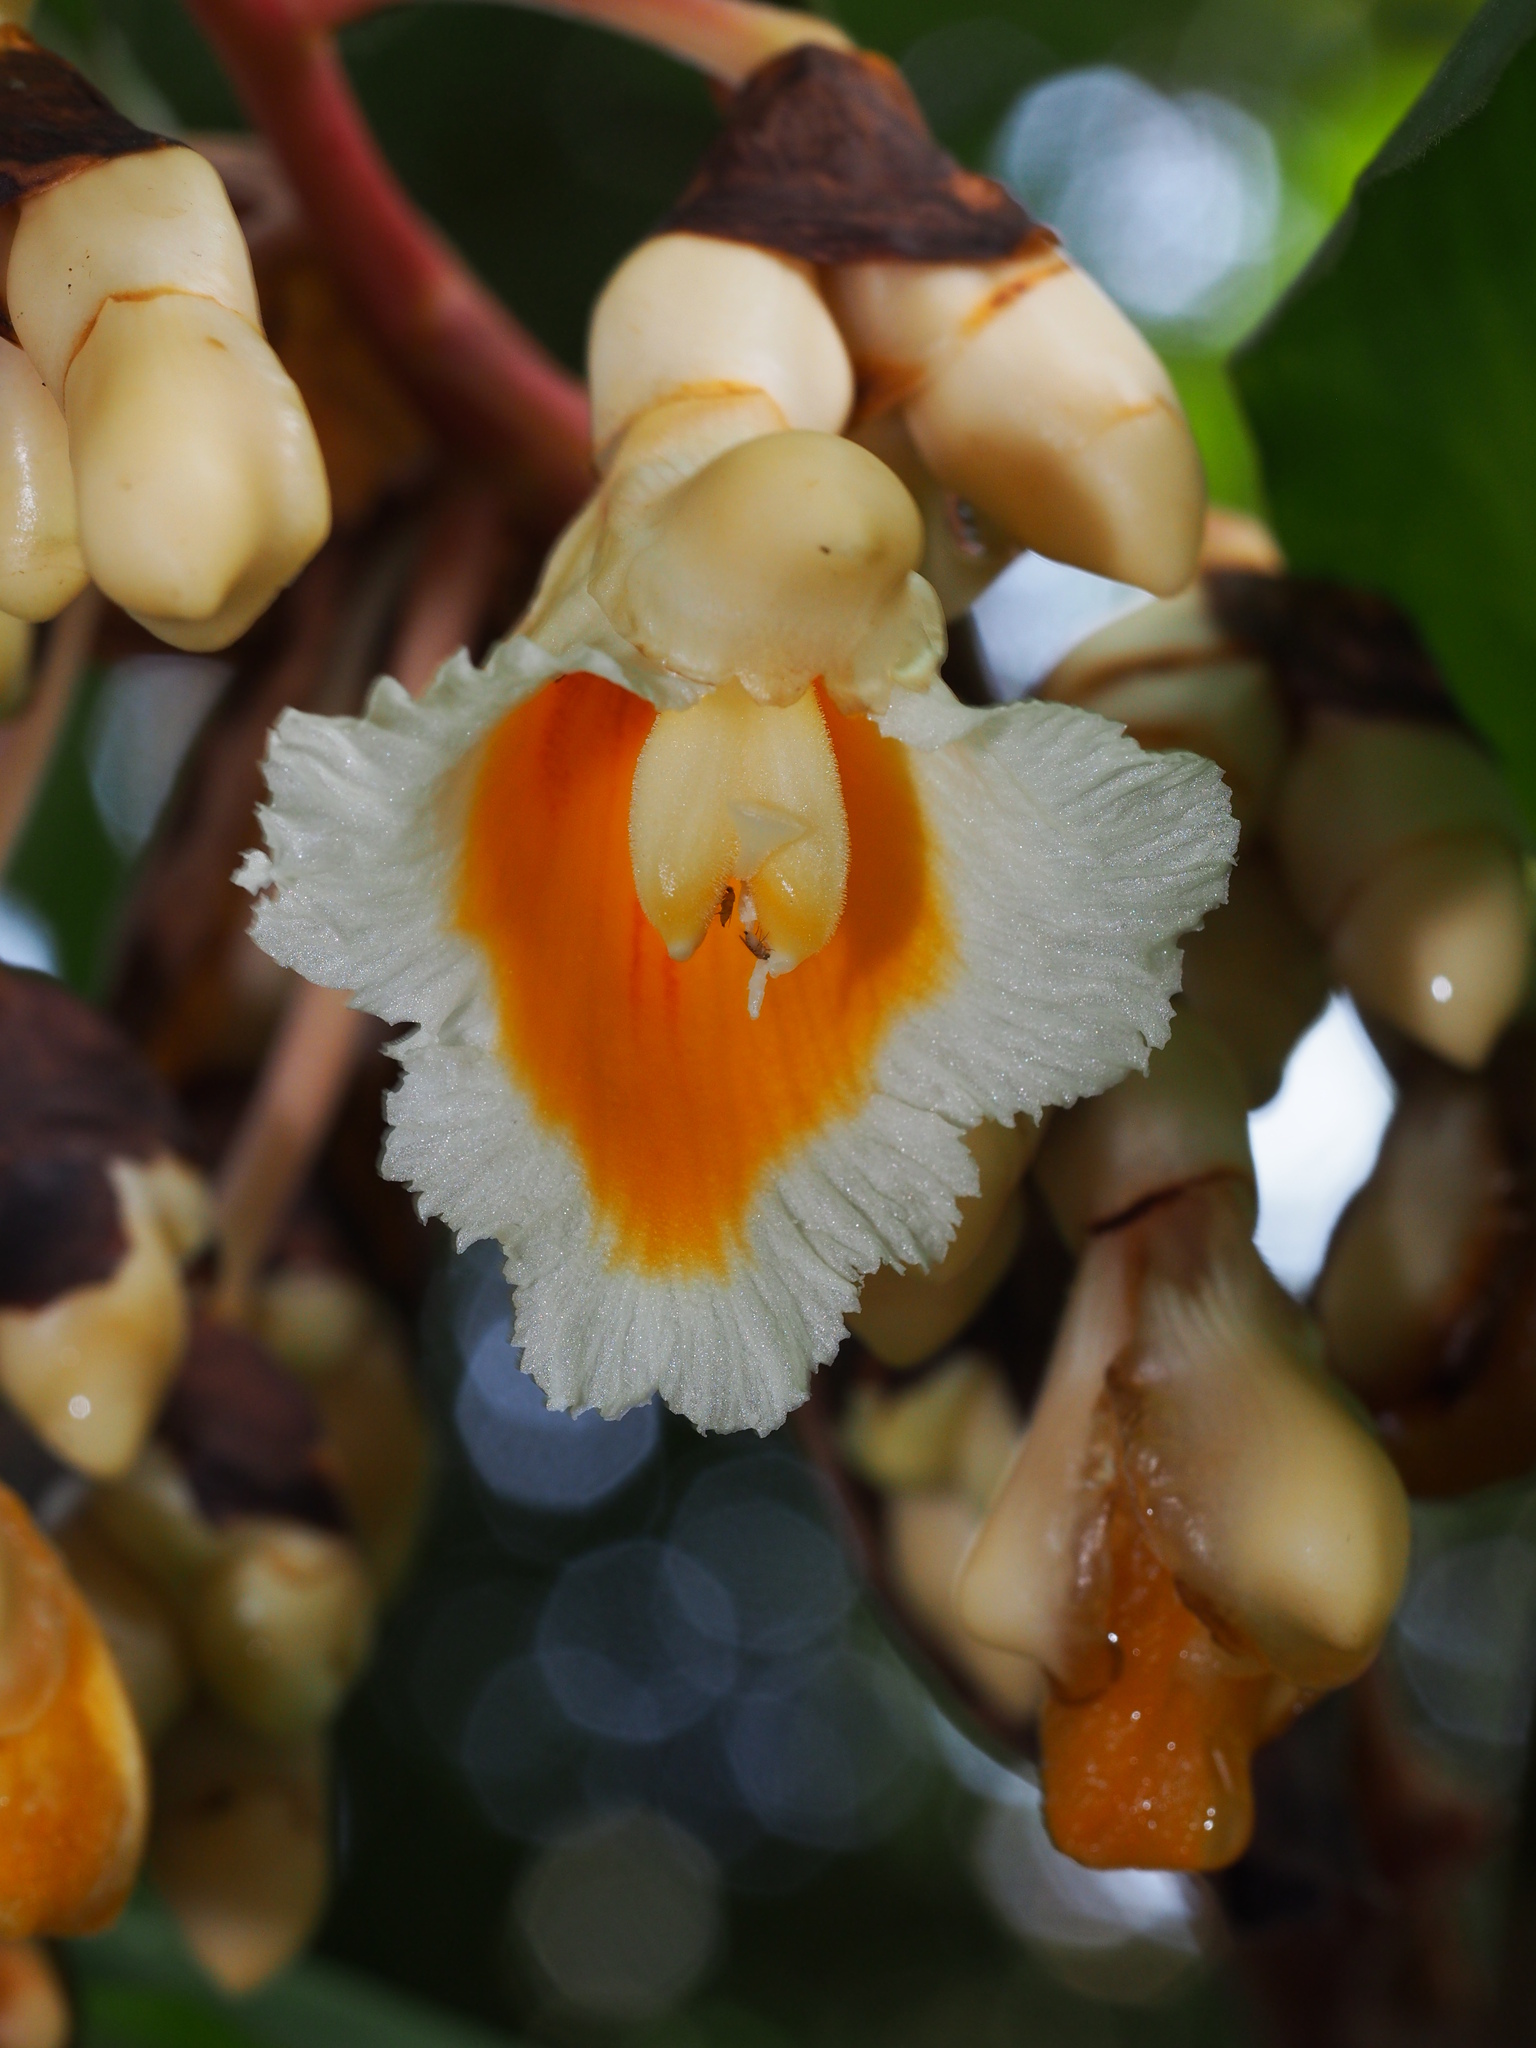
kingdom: Plantae
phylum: Tracheophyta
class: Liliopsida
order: Zingiberales
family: Zingiberaceae
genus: Alpinia
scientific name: Alpinia javanica
